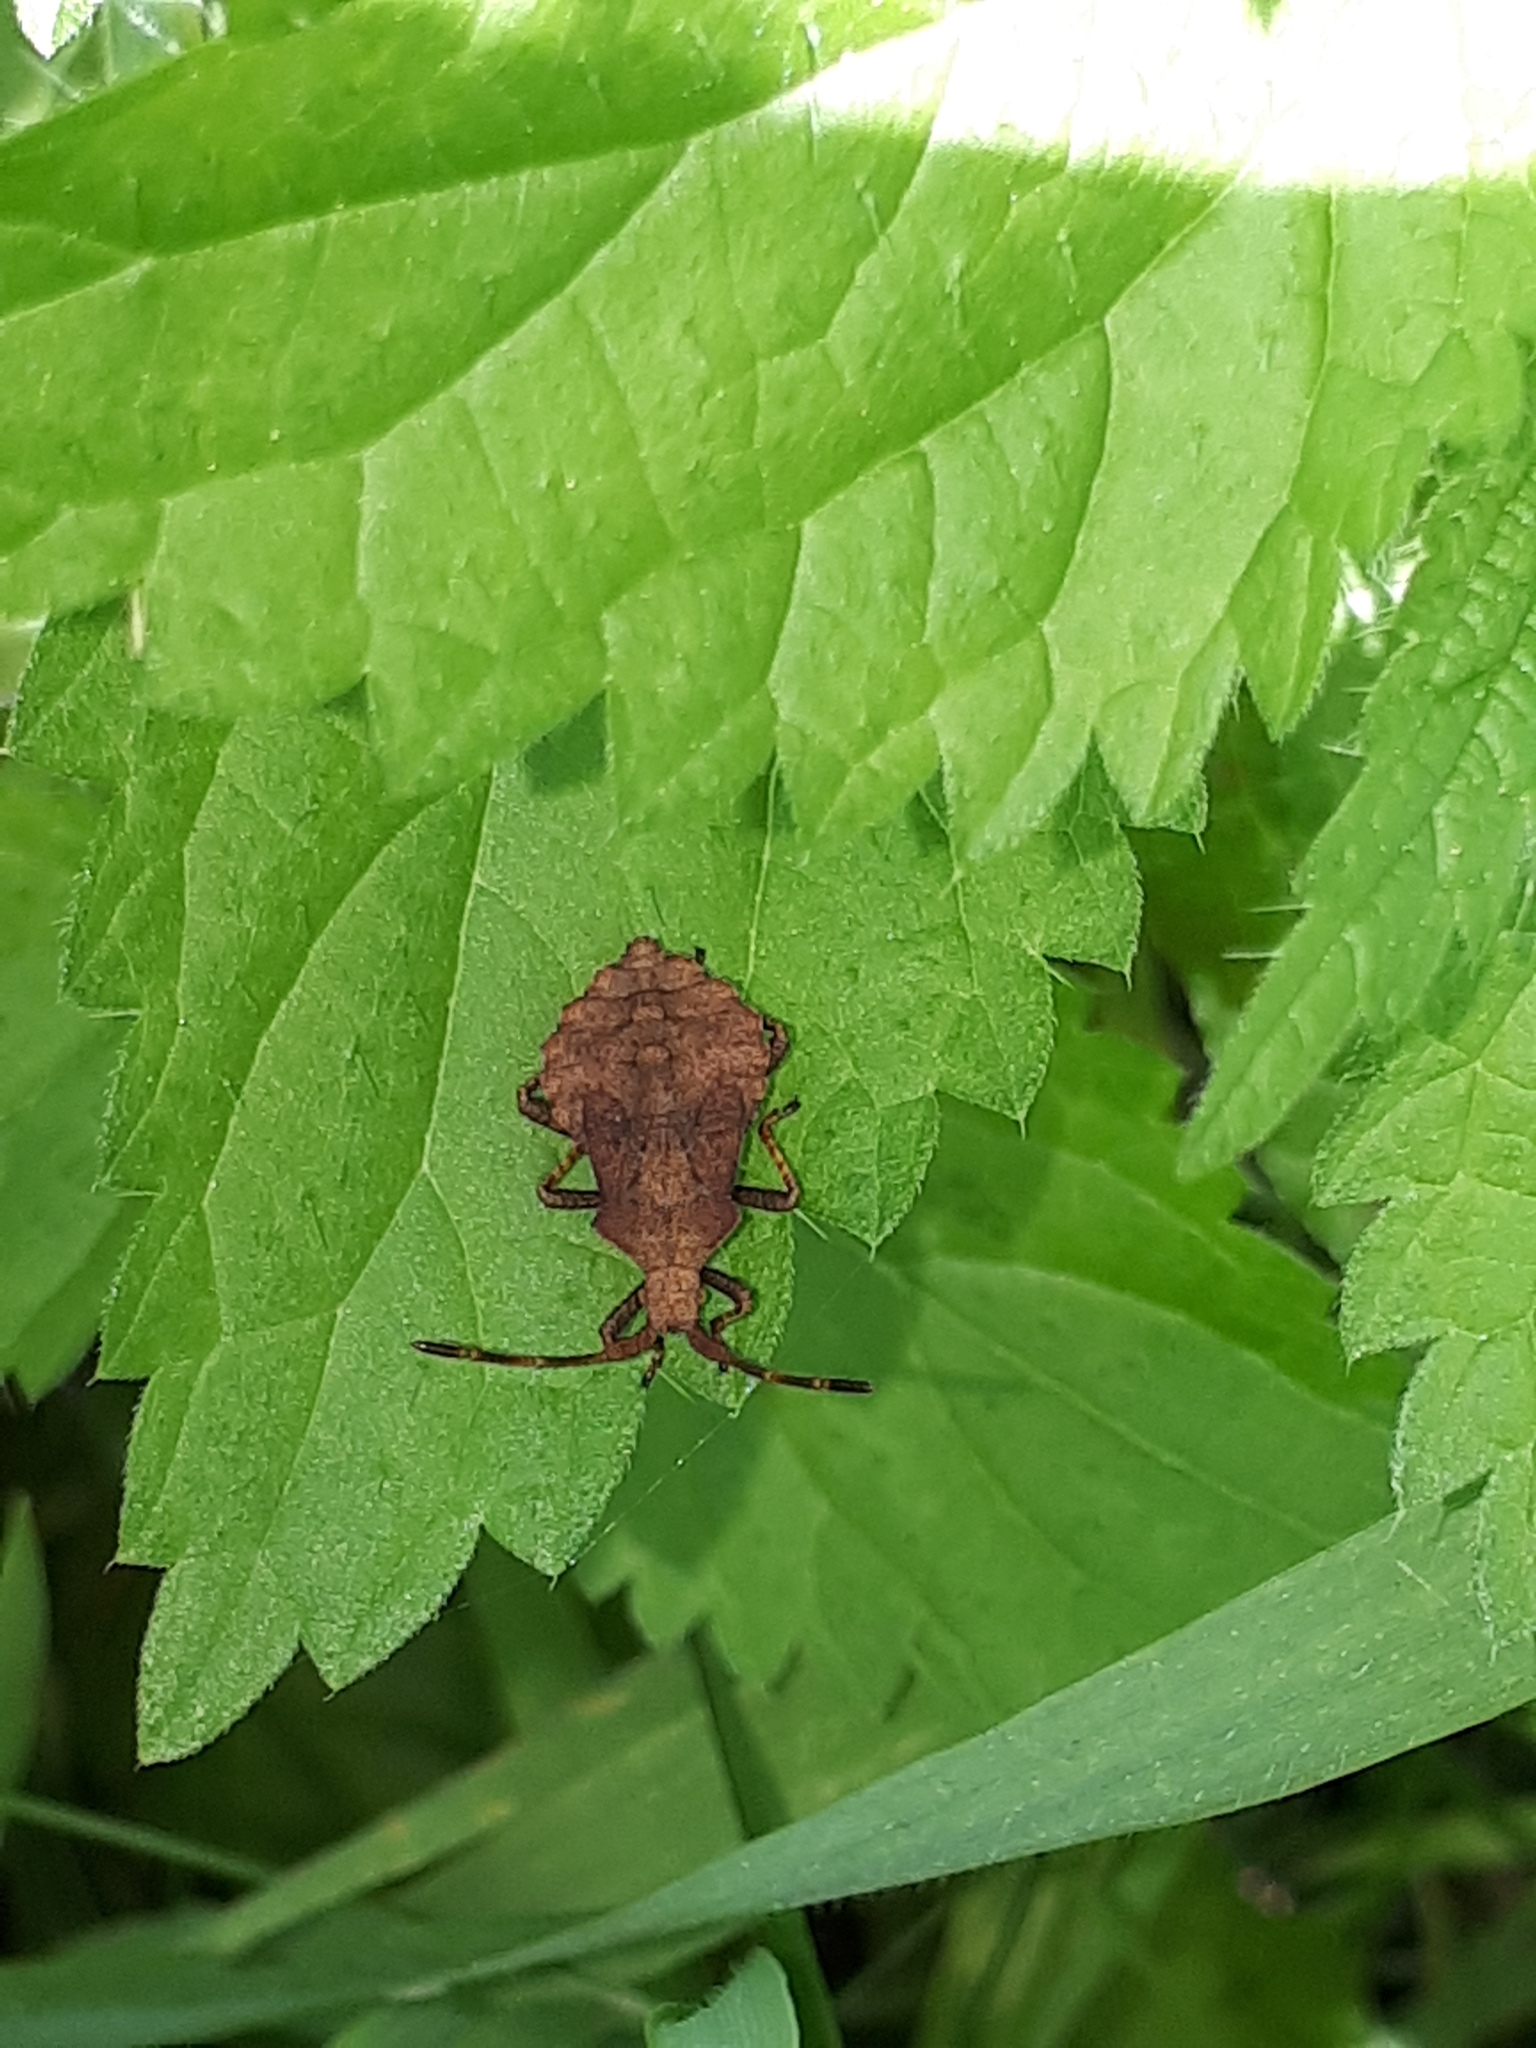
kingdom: Animalia
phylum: Arthropoda
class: Insecta
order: Hemiptera
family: Coreidae
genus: Coreus
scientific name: Coreus marginatus
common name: Dock bug
